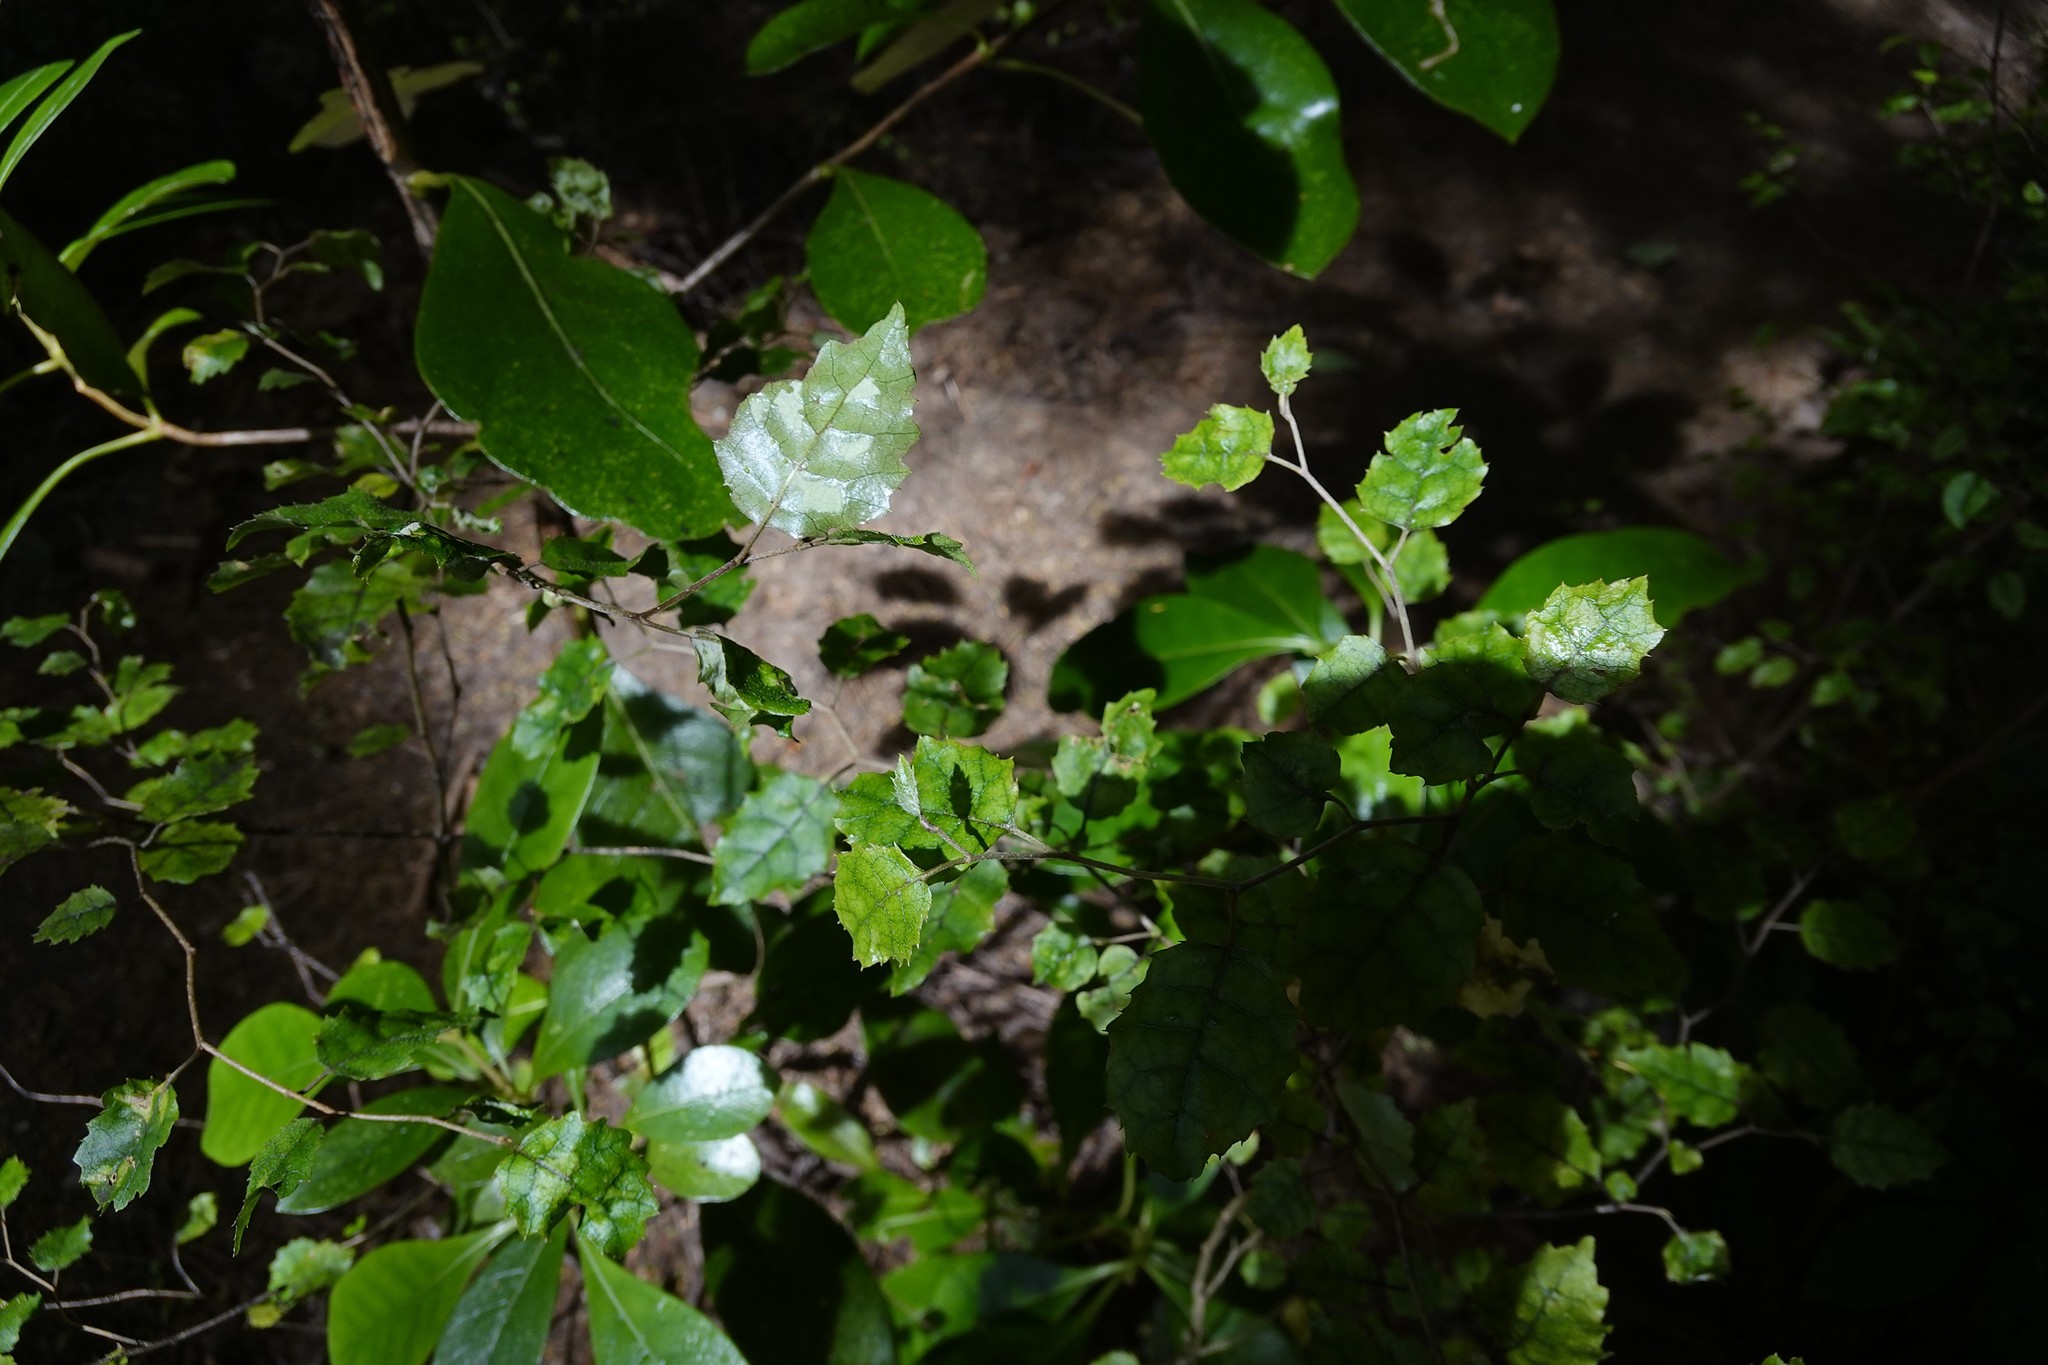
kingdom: Plantae
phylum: Tracheophyta
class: Magnoliopsida
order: Asterales
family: Rousseaceae
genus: Carpodetus
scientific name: Carpodetus serratus
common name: White mapau
